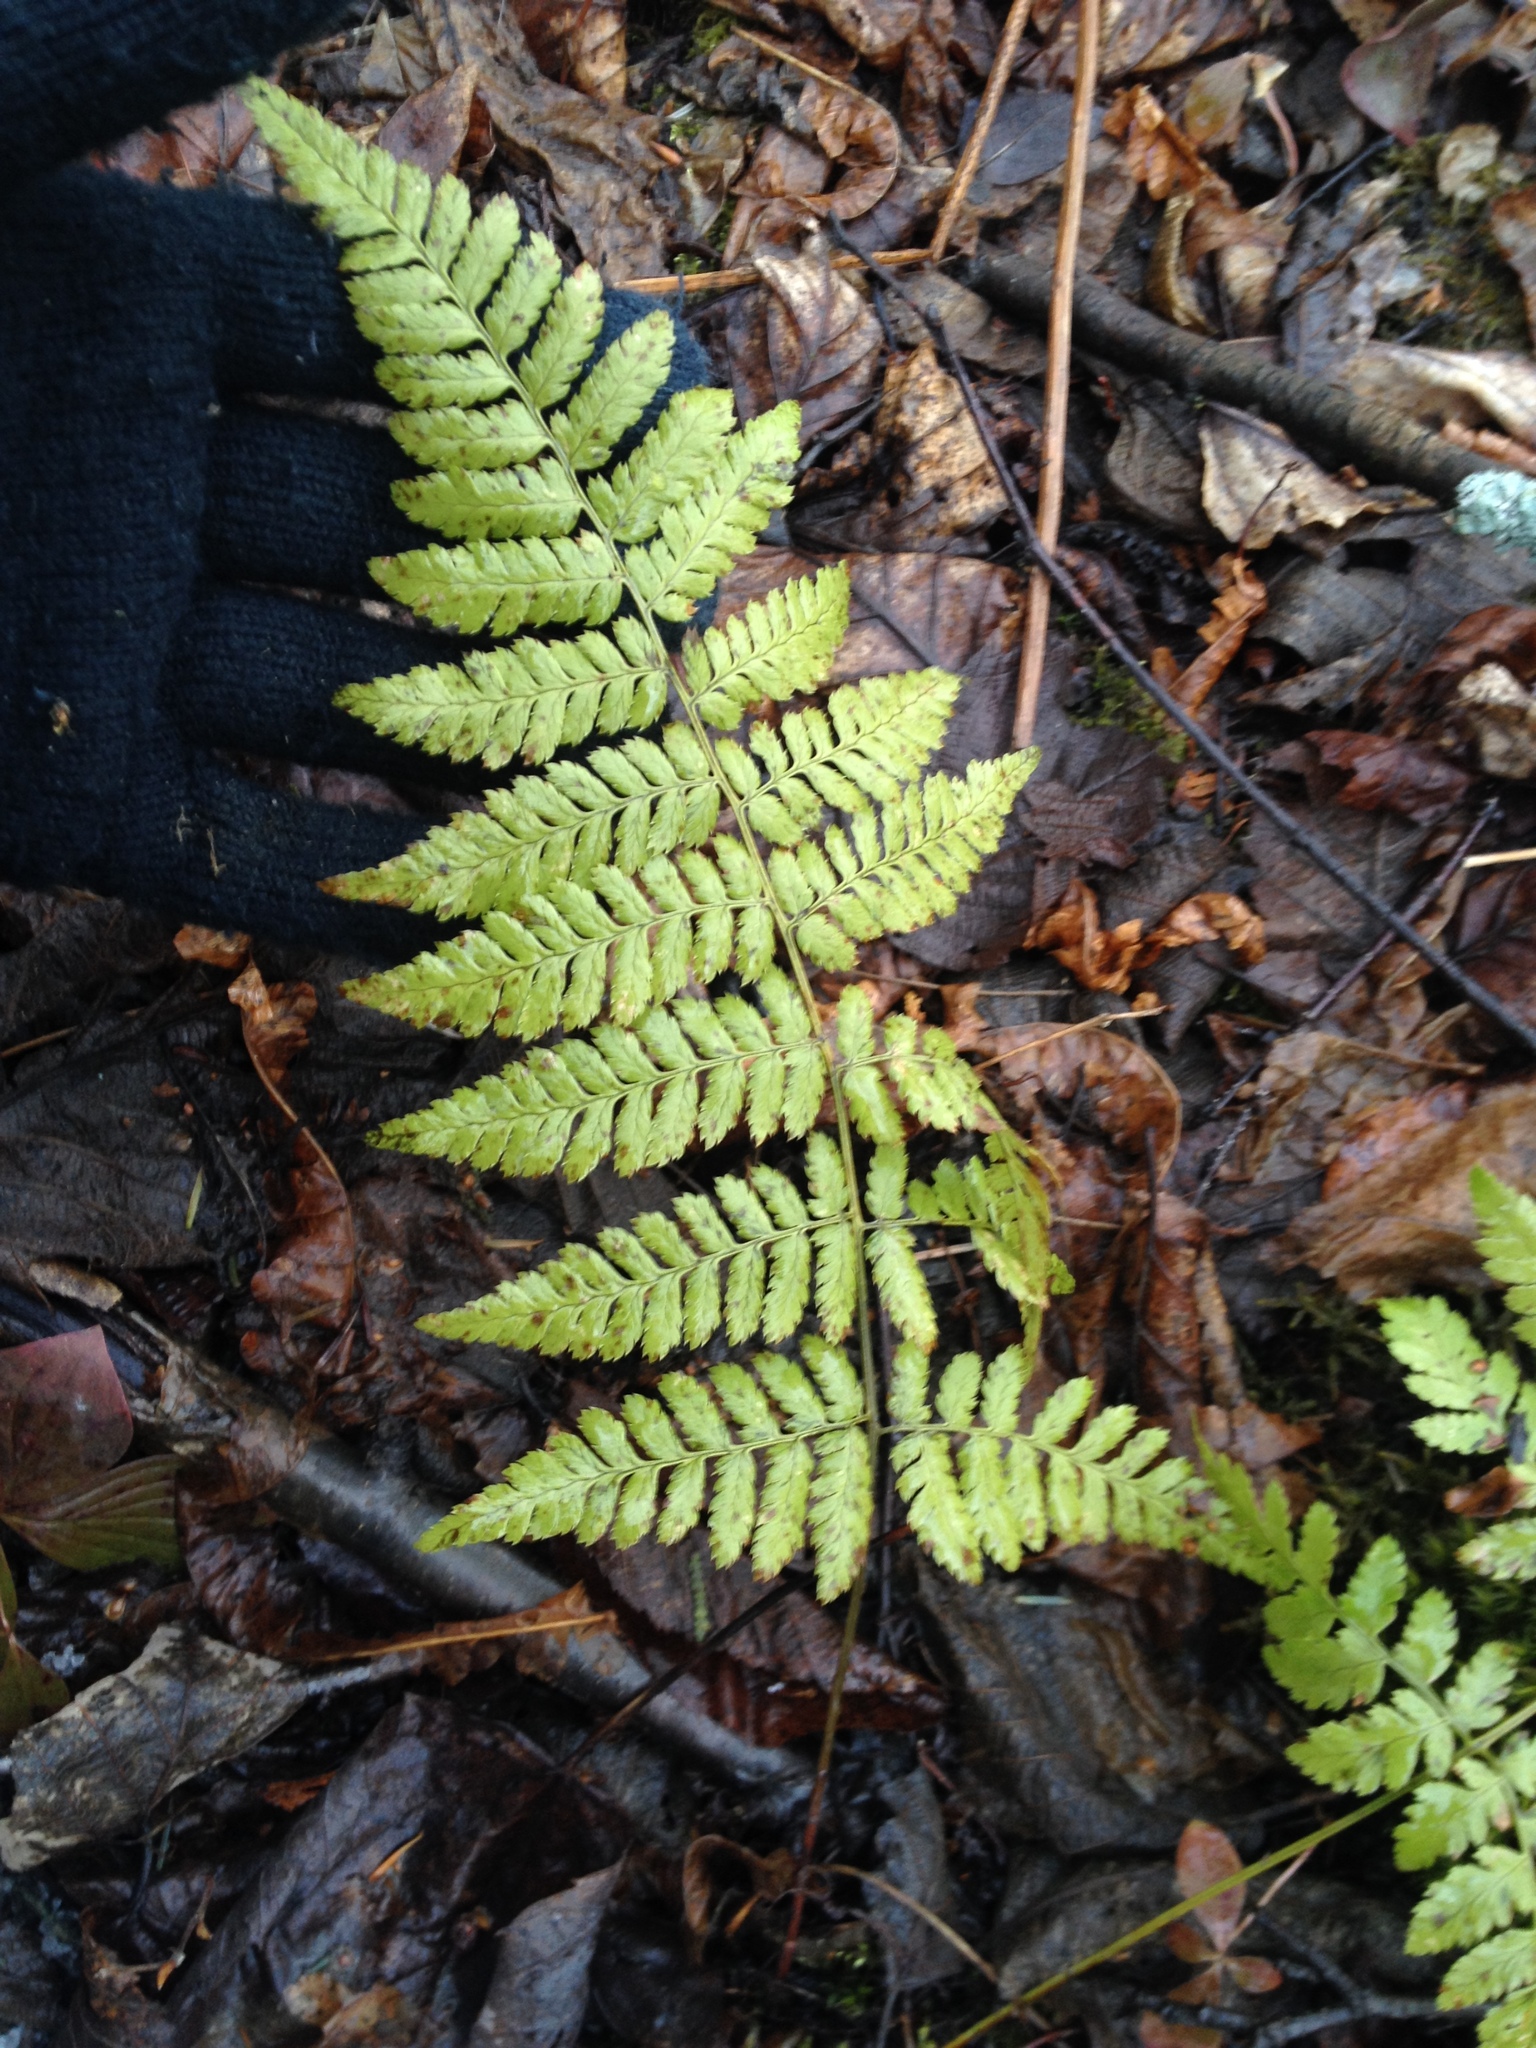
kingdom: Plantae
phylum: Tracheophyta
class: Polypodiopsida
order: Polypodiales
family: Dryopteridaceae
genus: Dryopteris
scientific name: Dryopteris carthusiana
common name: Narrow buckler-fern
